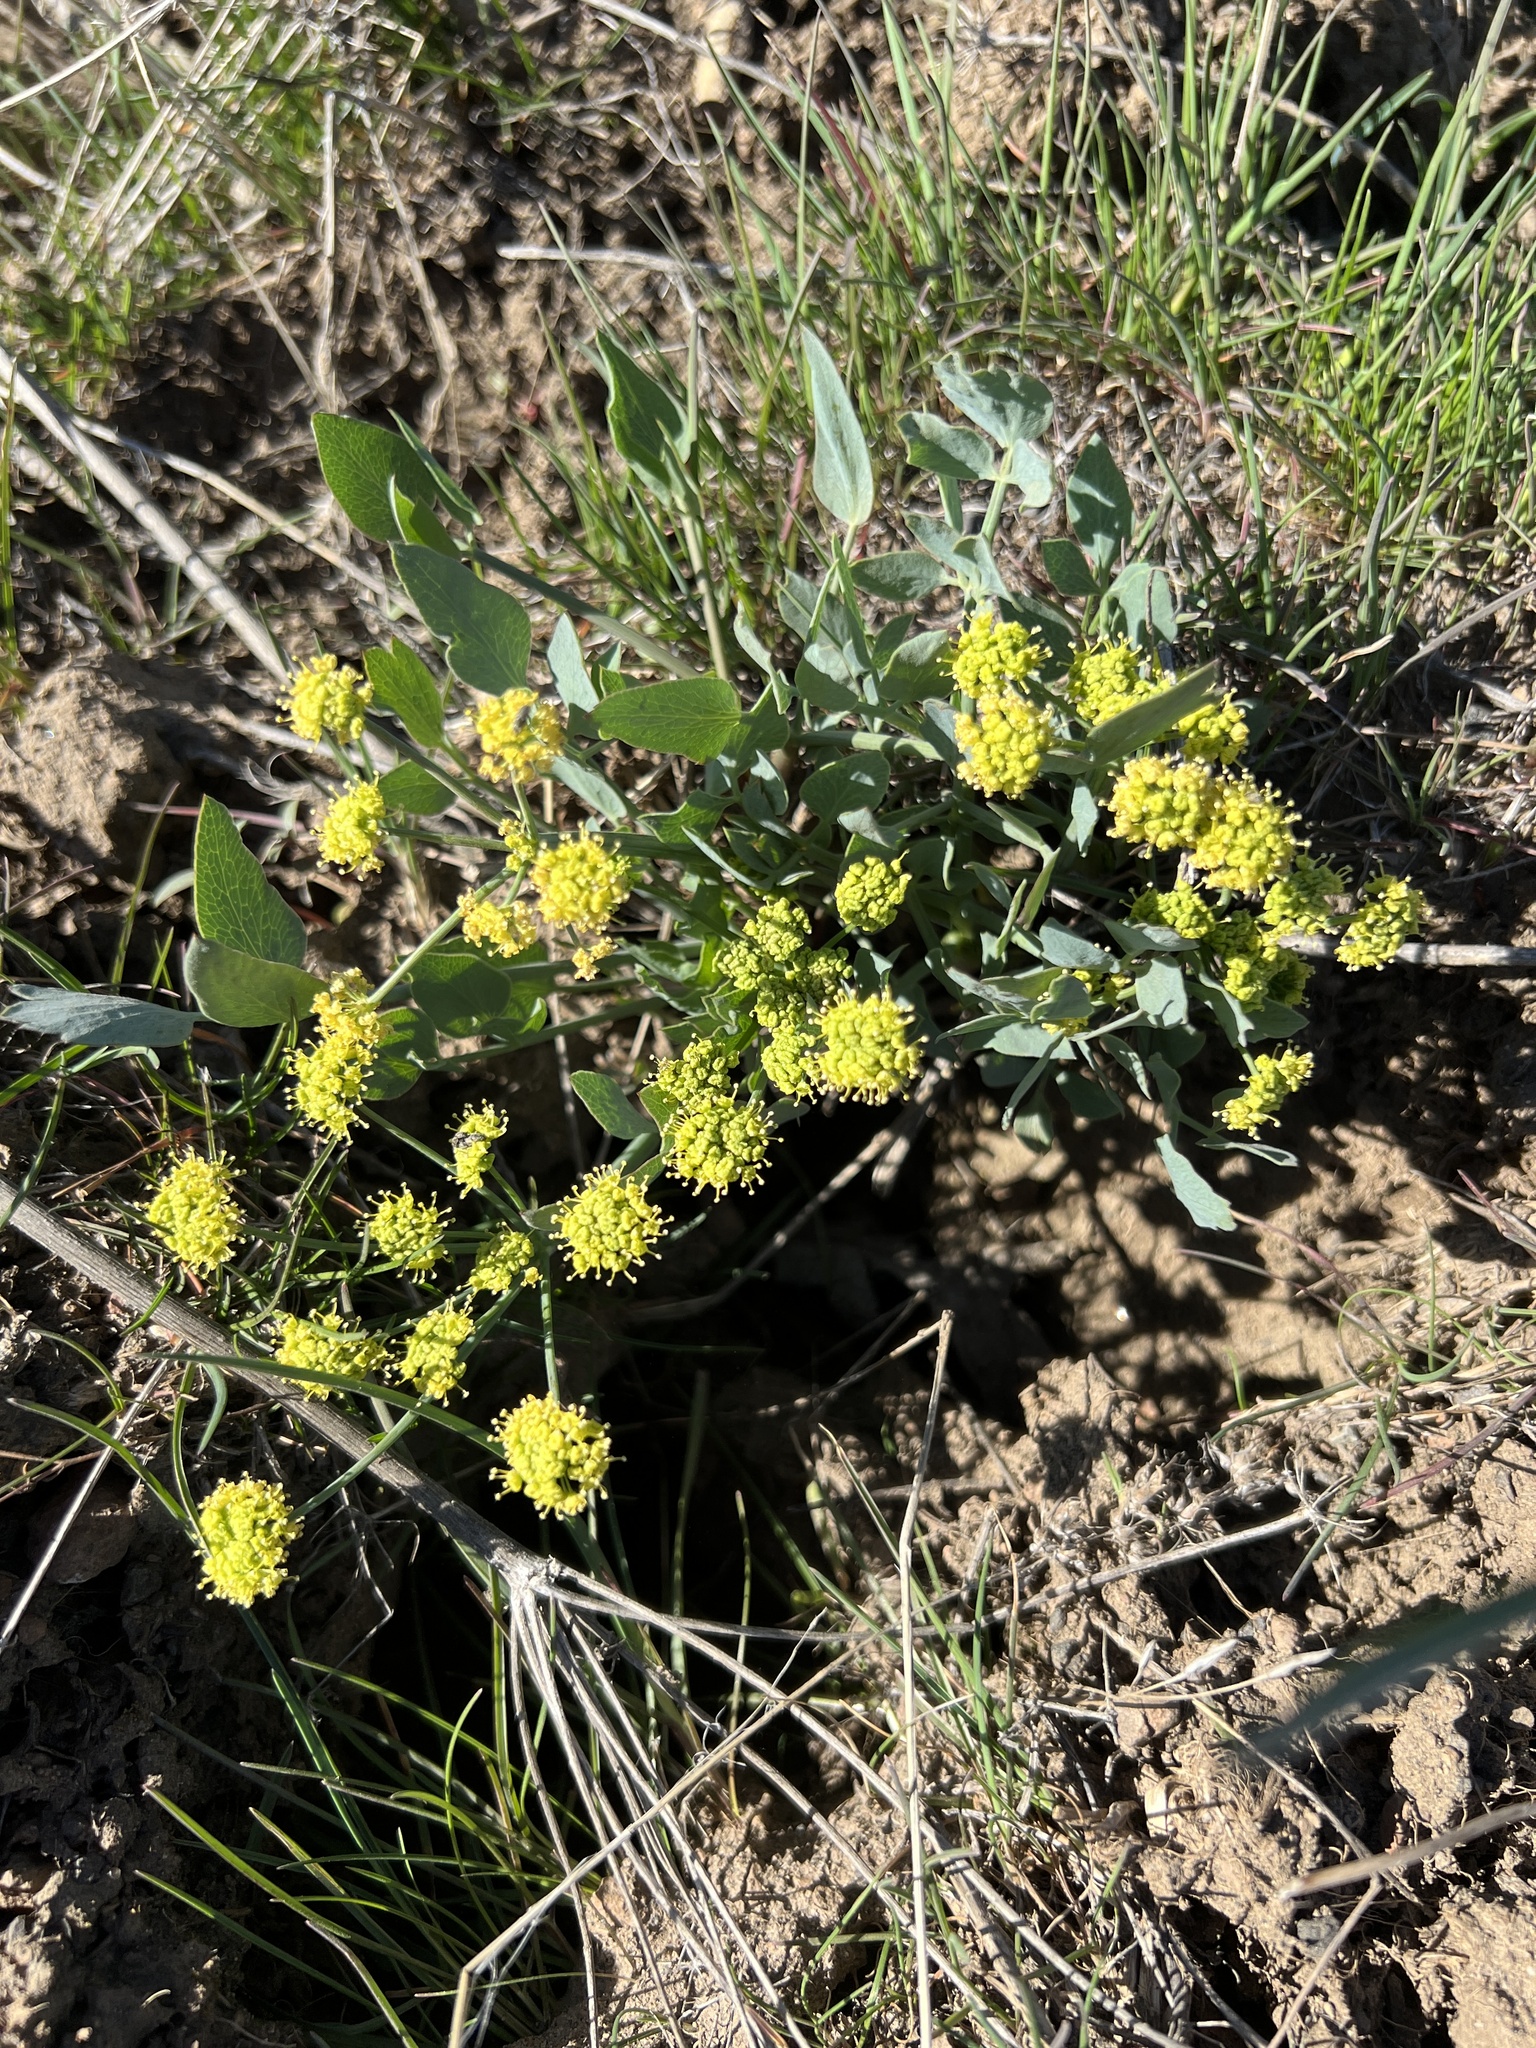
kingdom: Plantae
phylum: Tracheophyta
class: Magnoliopsida
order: Apiales
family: Apiaceae
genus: Lomatium
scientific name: Lomatium nudicaule
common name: Pestle lomatium
